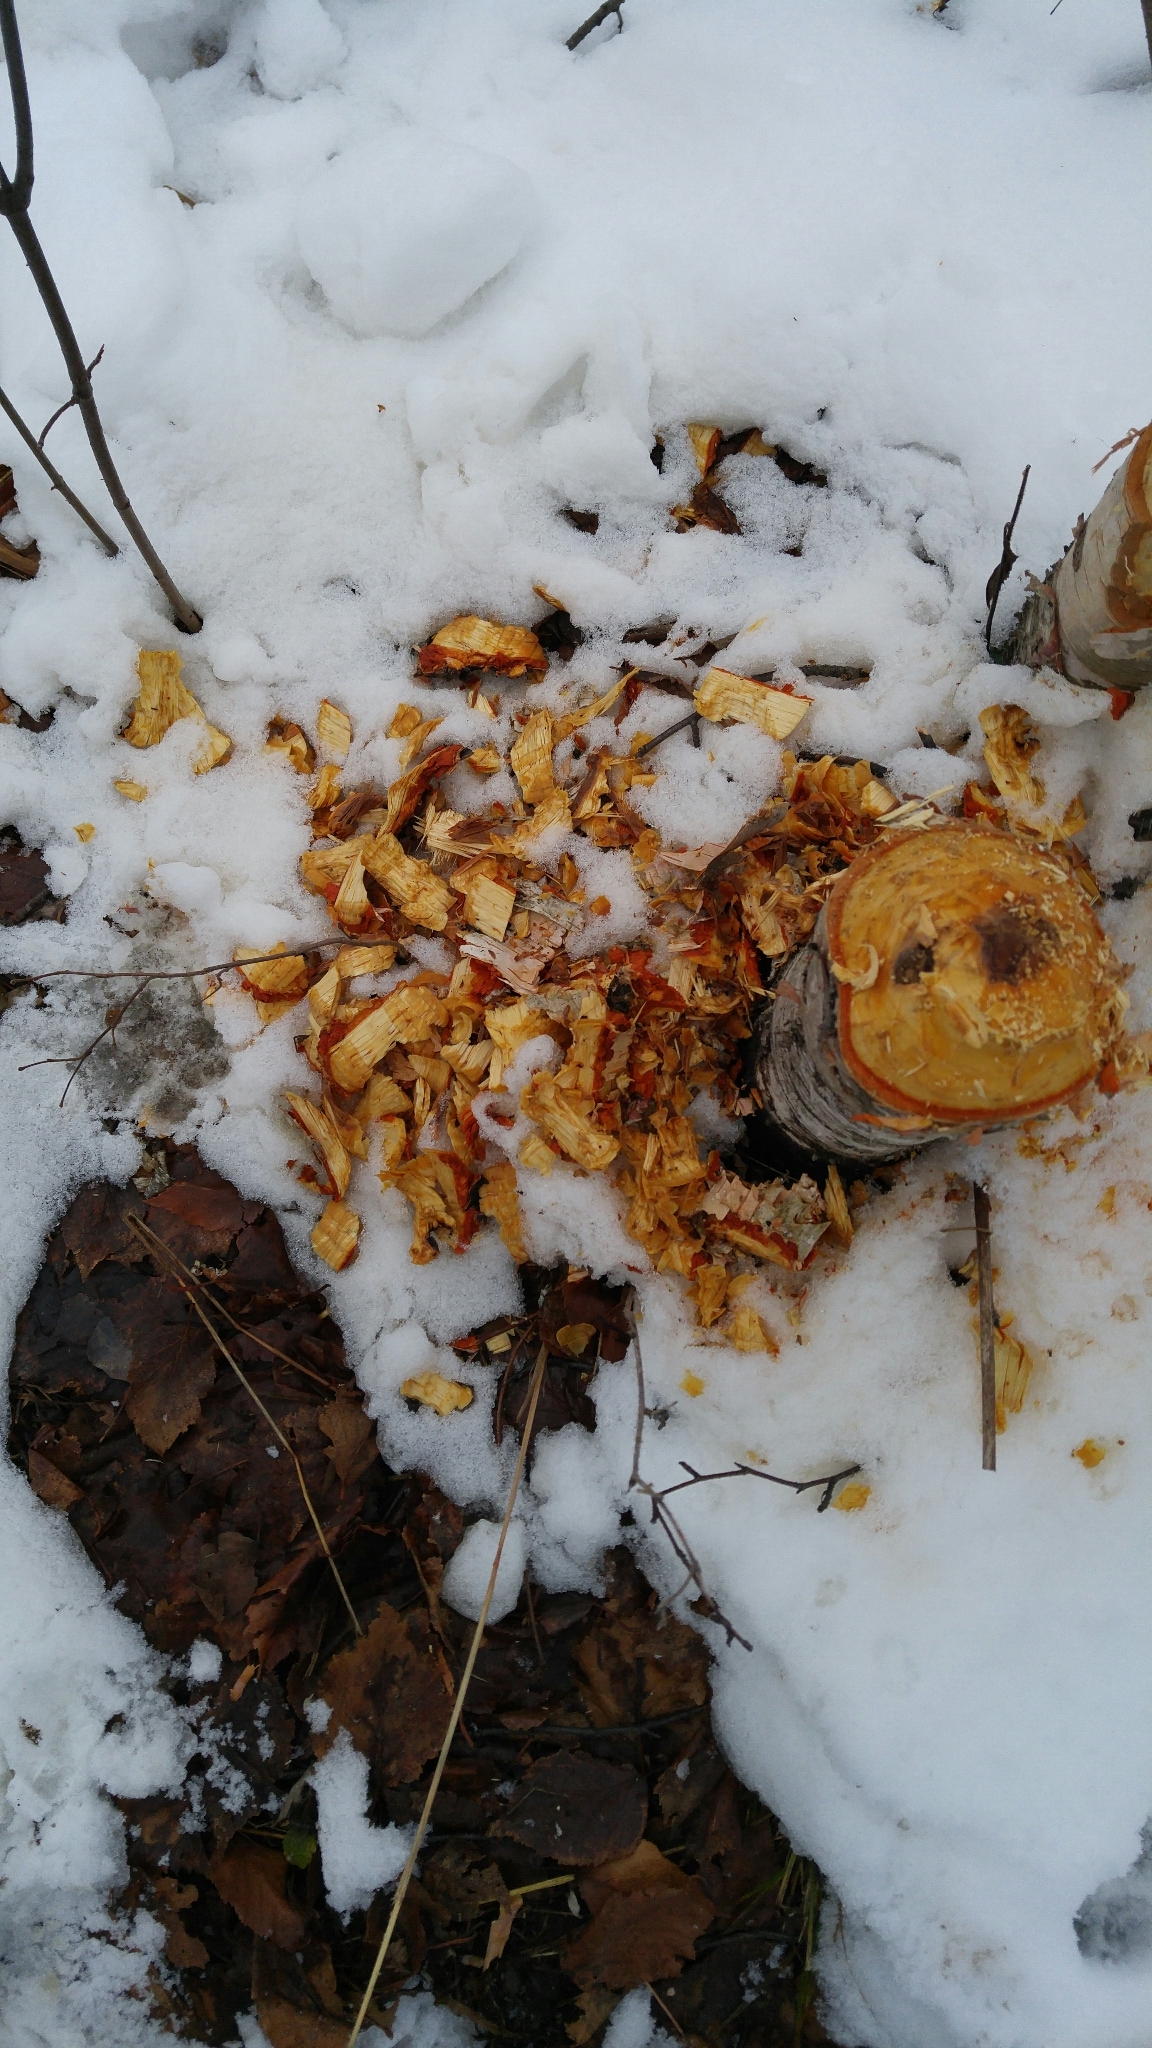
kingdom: Animalia
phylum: Chordata
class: Mammalia
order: Rodentia
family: Castoridae
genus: Castor
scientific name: Castor canadensis
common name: American beaver
